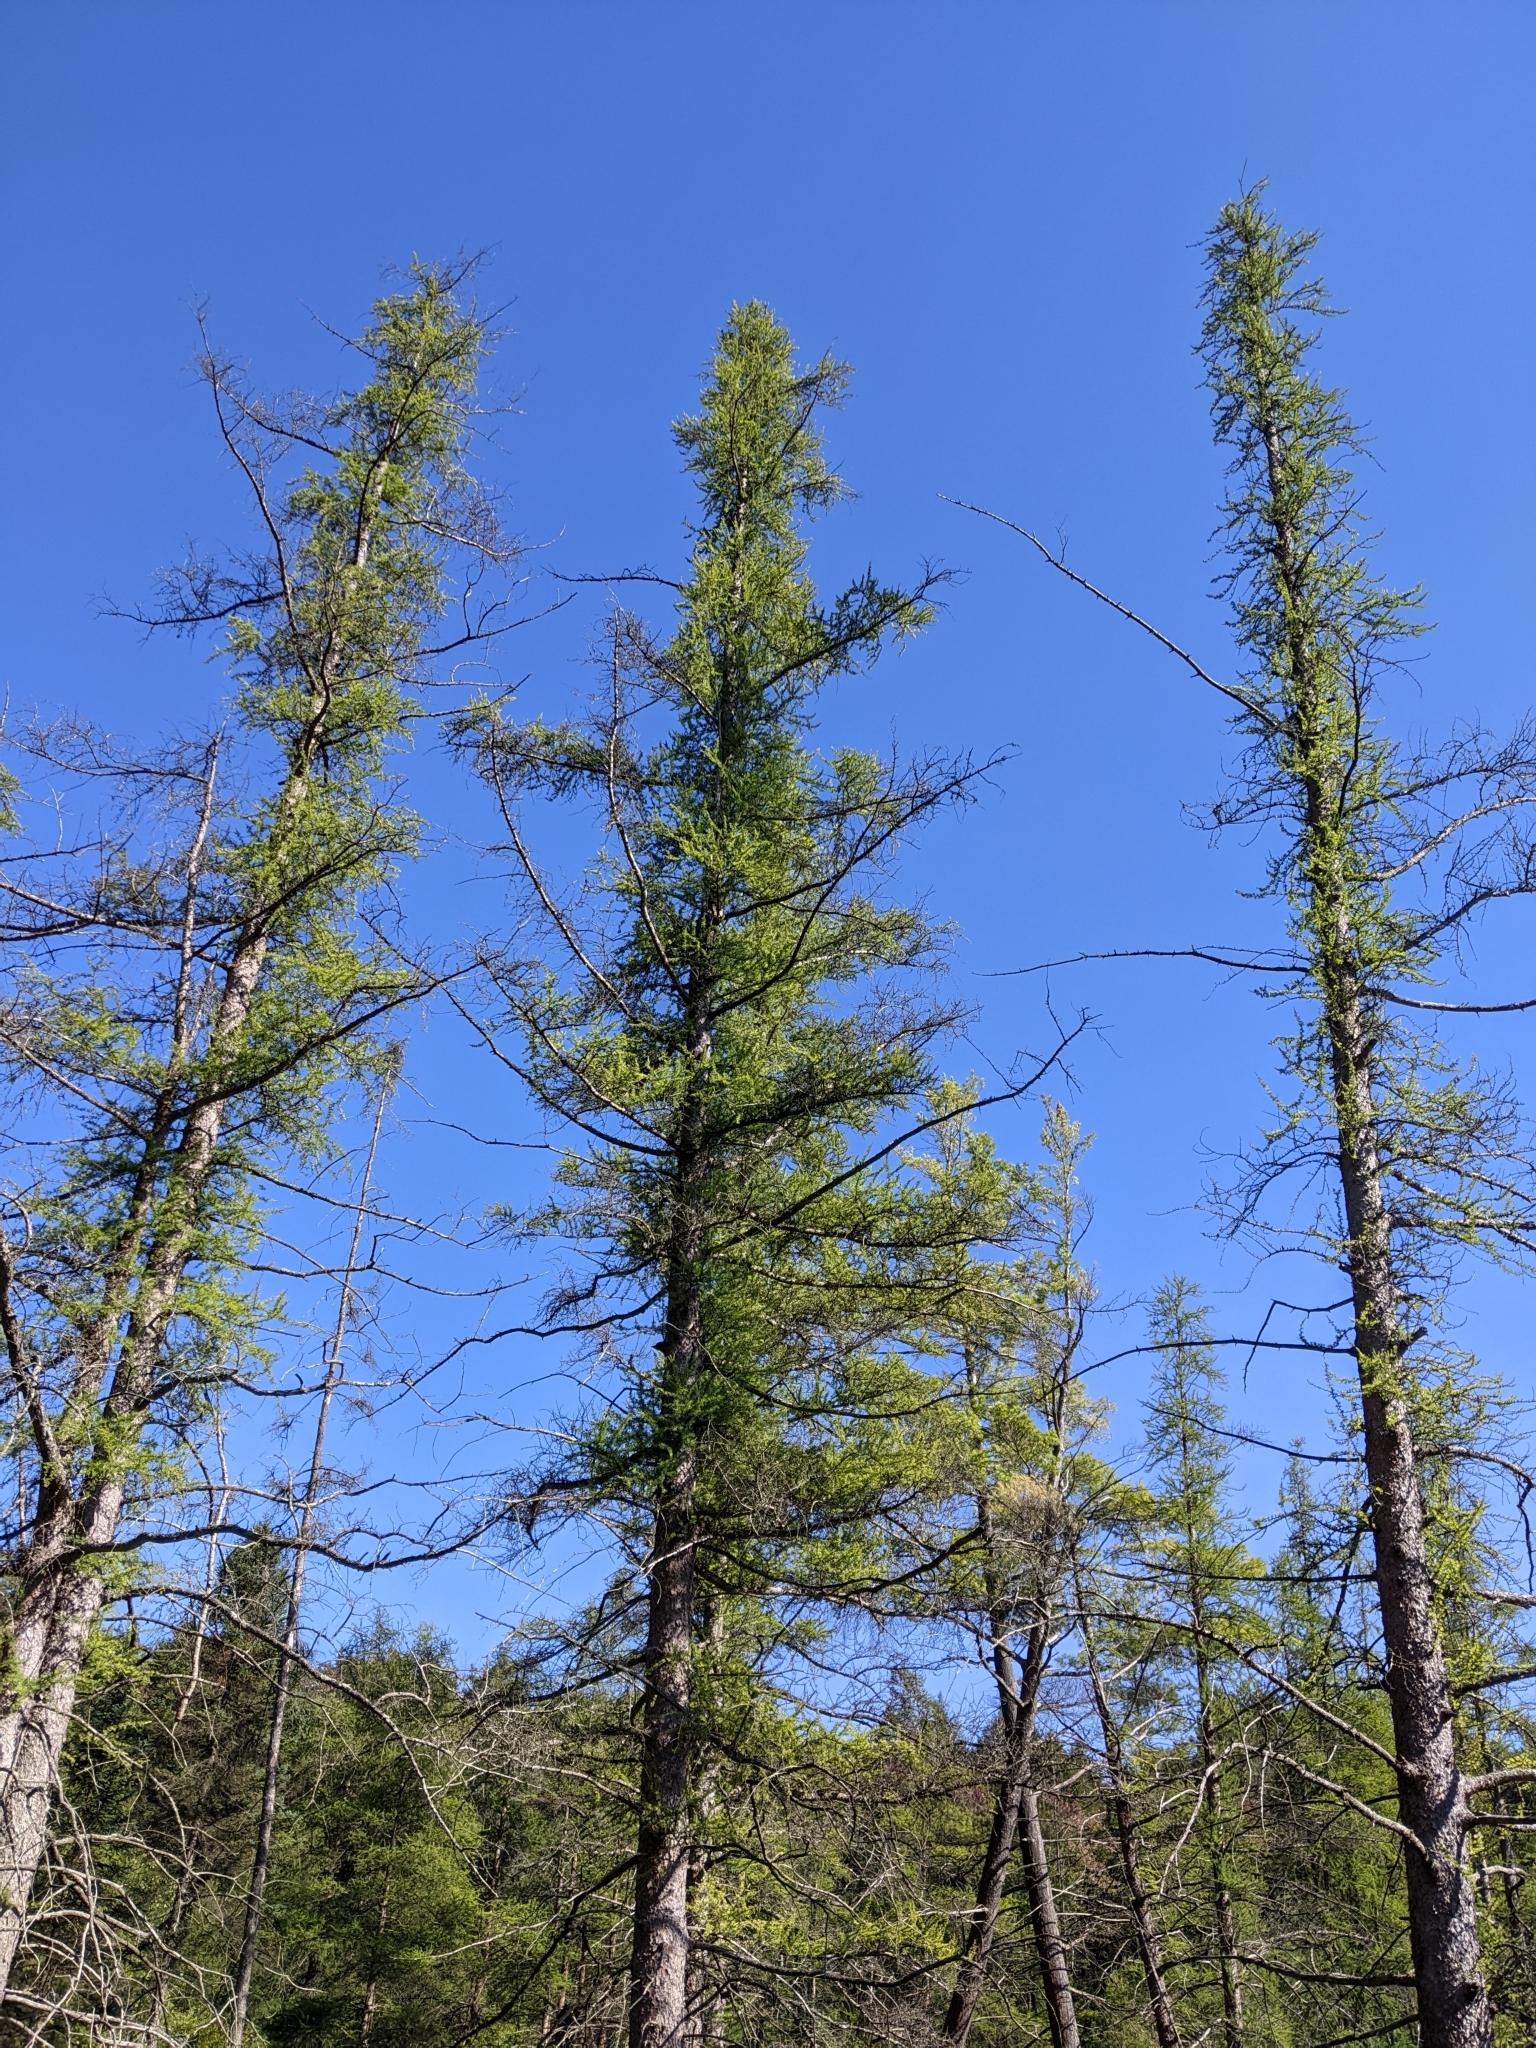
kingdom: Plantae
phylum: Tracheophyta
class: Pinopsida
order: Pinales
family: Pinaceae
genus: Larix
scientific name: Larix laricina
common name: American larch
